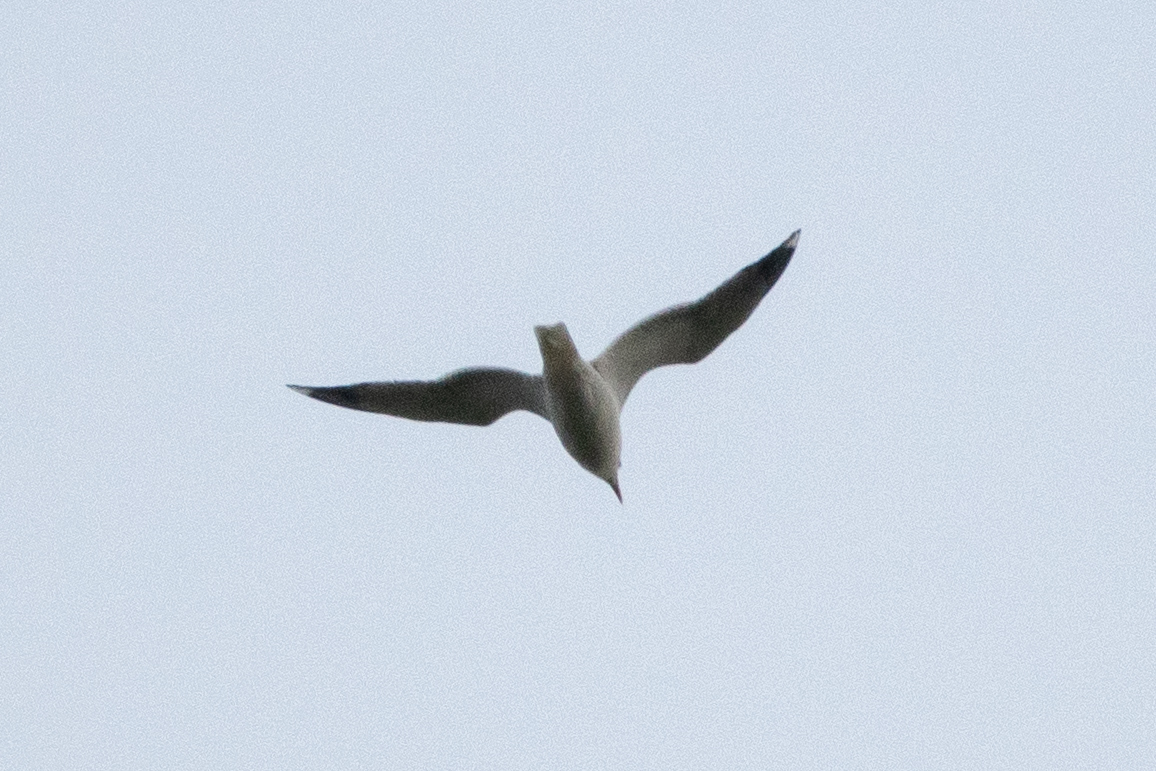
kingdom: Animalia
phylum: Chordata
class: Aves
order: Charadriiformes
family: Laridae
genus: Larus
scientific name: Larus
